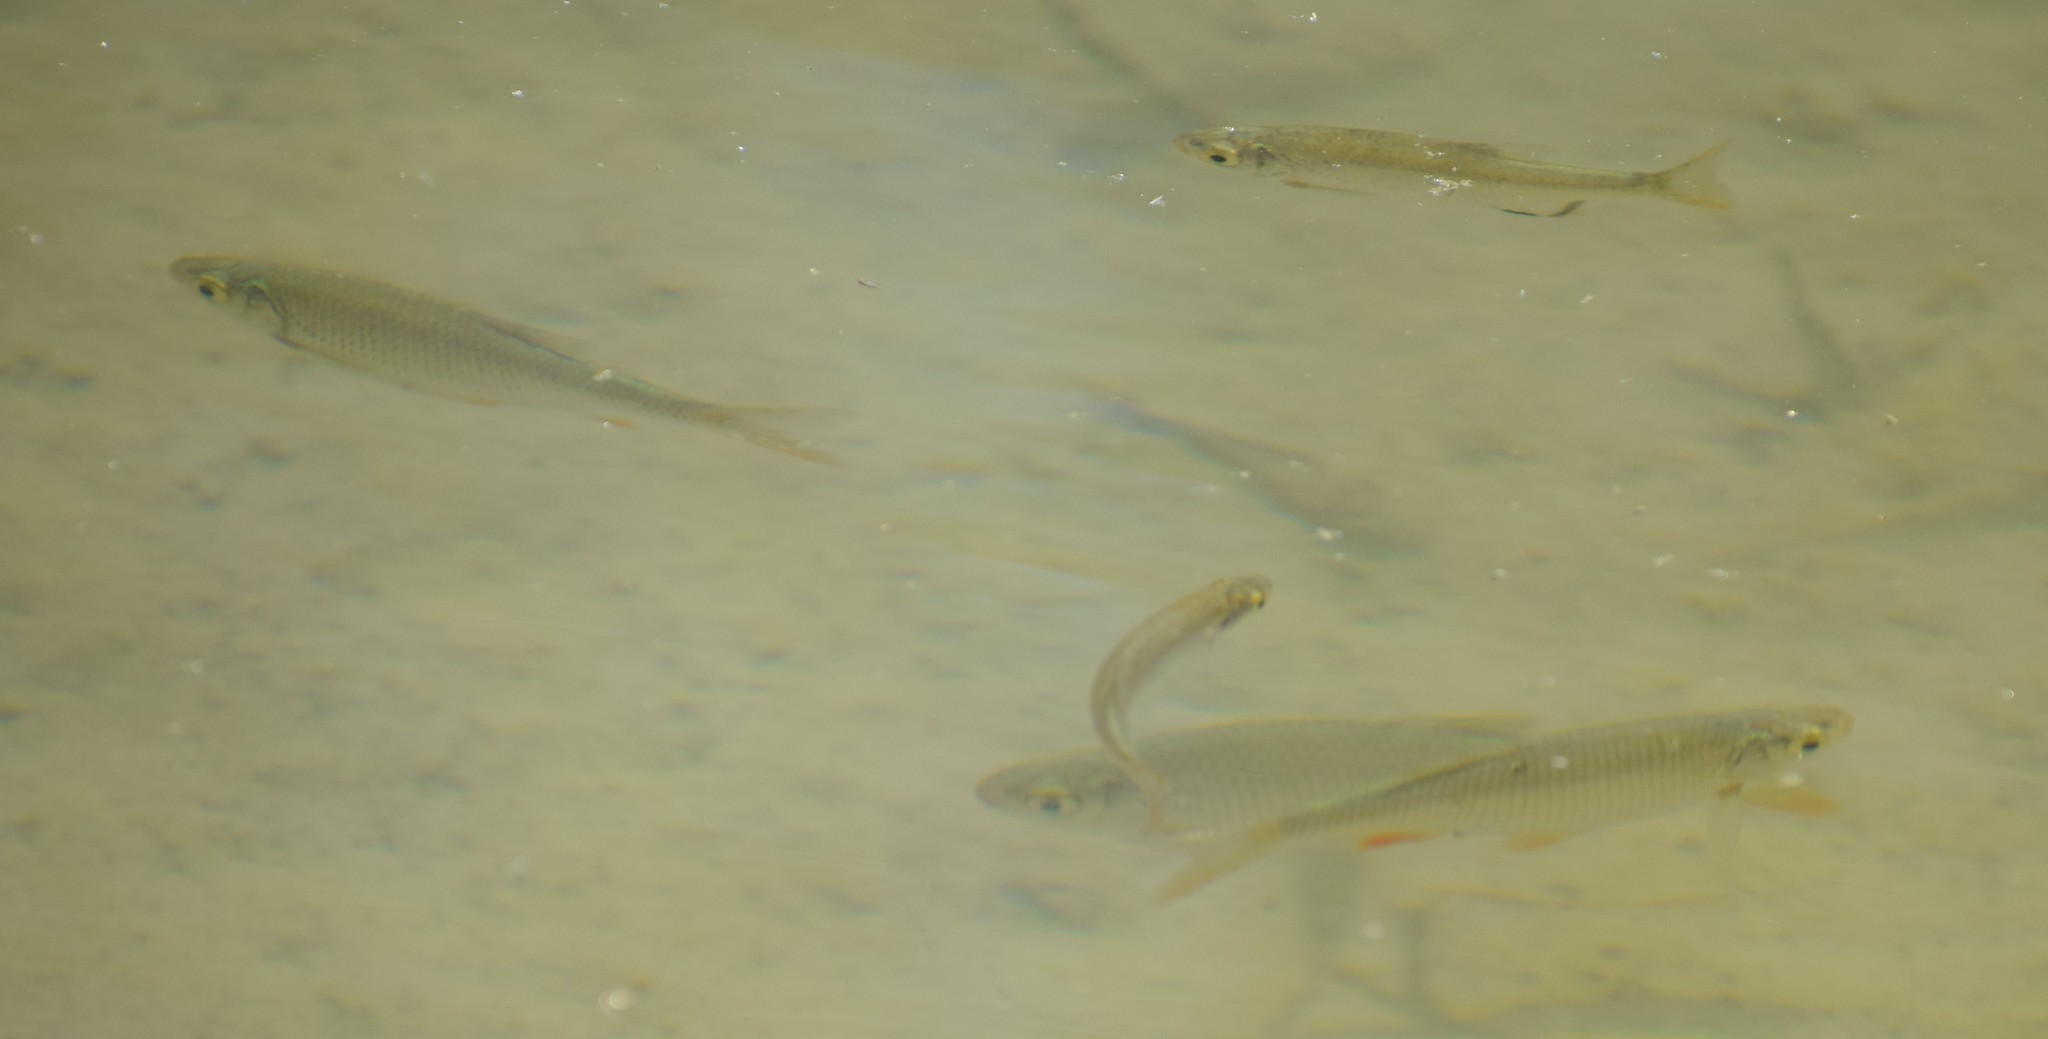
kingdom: Animalia
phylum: Chordata
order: Cypriniformes
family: Cyprinidae
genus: Scardinius
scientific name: Scardinius erythrophthalmus
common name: Rudd
